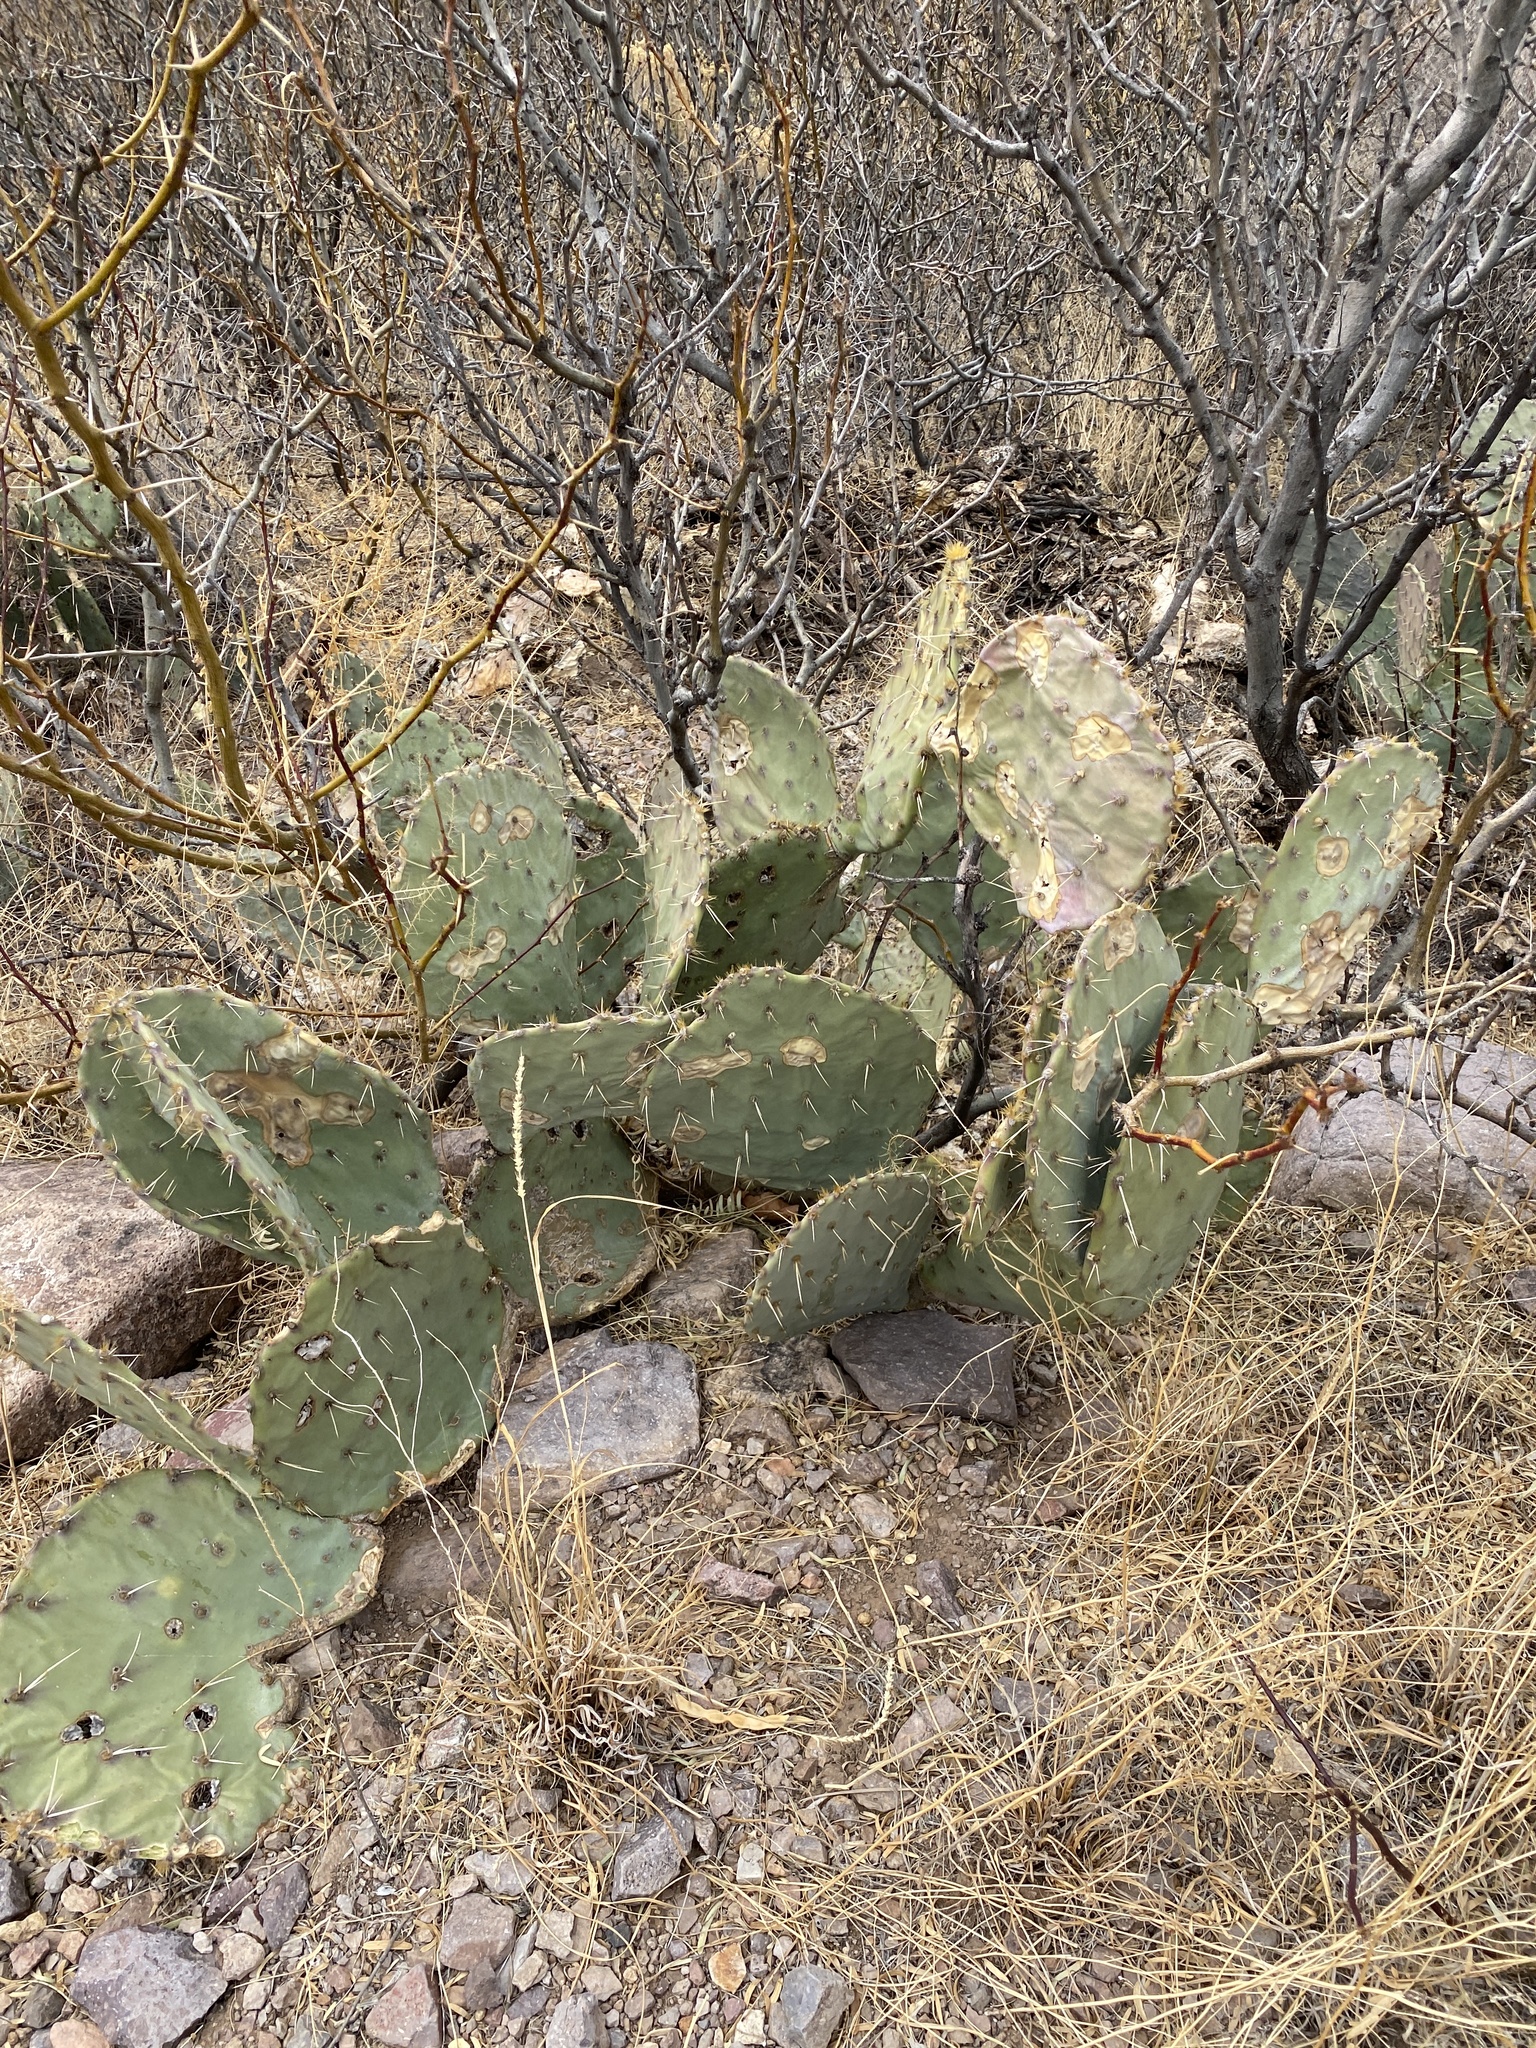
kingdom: Plantae
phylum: Tracheophyta
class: Magnoliopsida
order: Caryophyllales
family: Cactaceae
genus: Opuntia
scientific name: Opuntia engelmannii
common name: Cactus-apple
